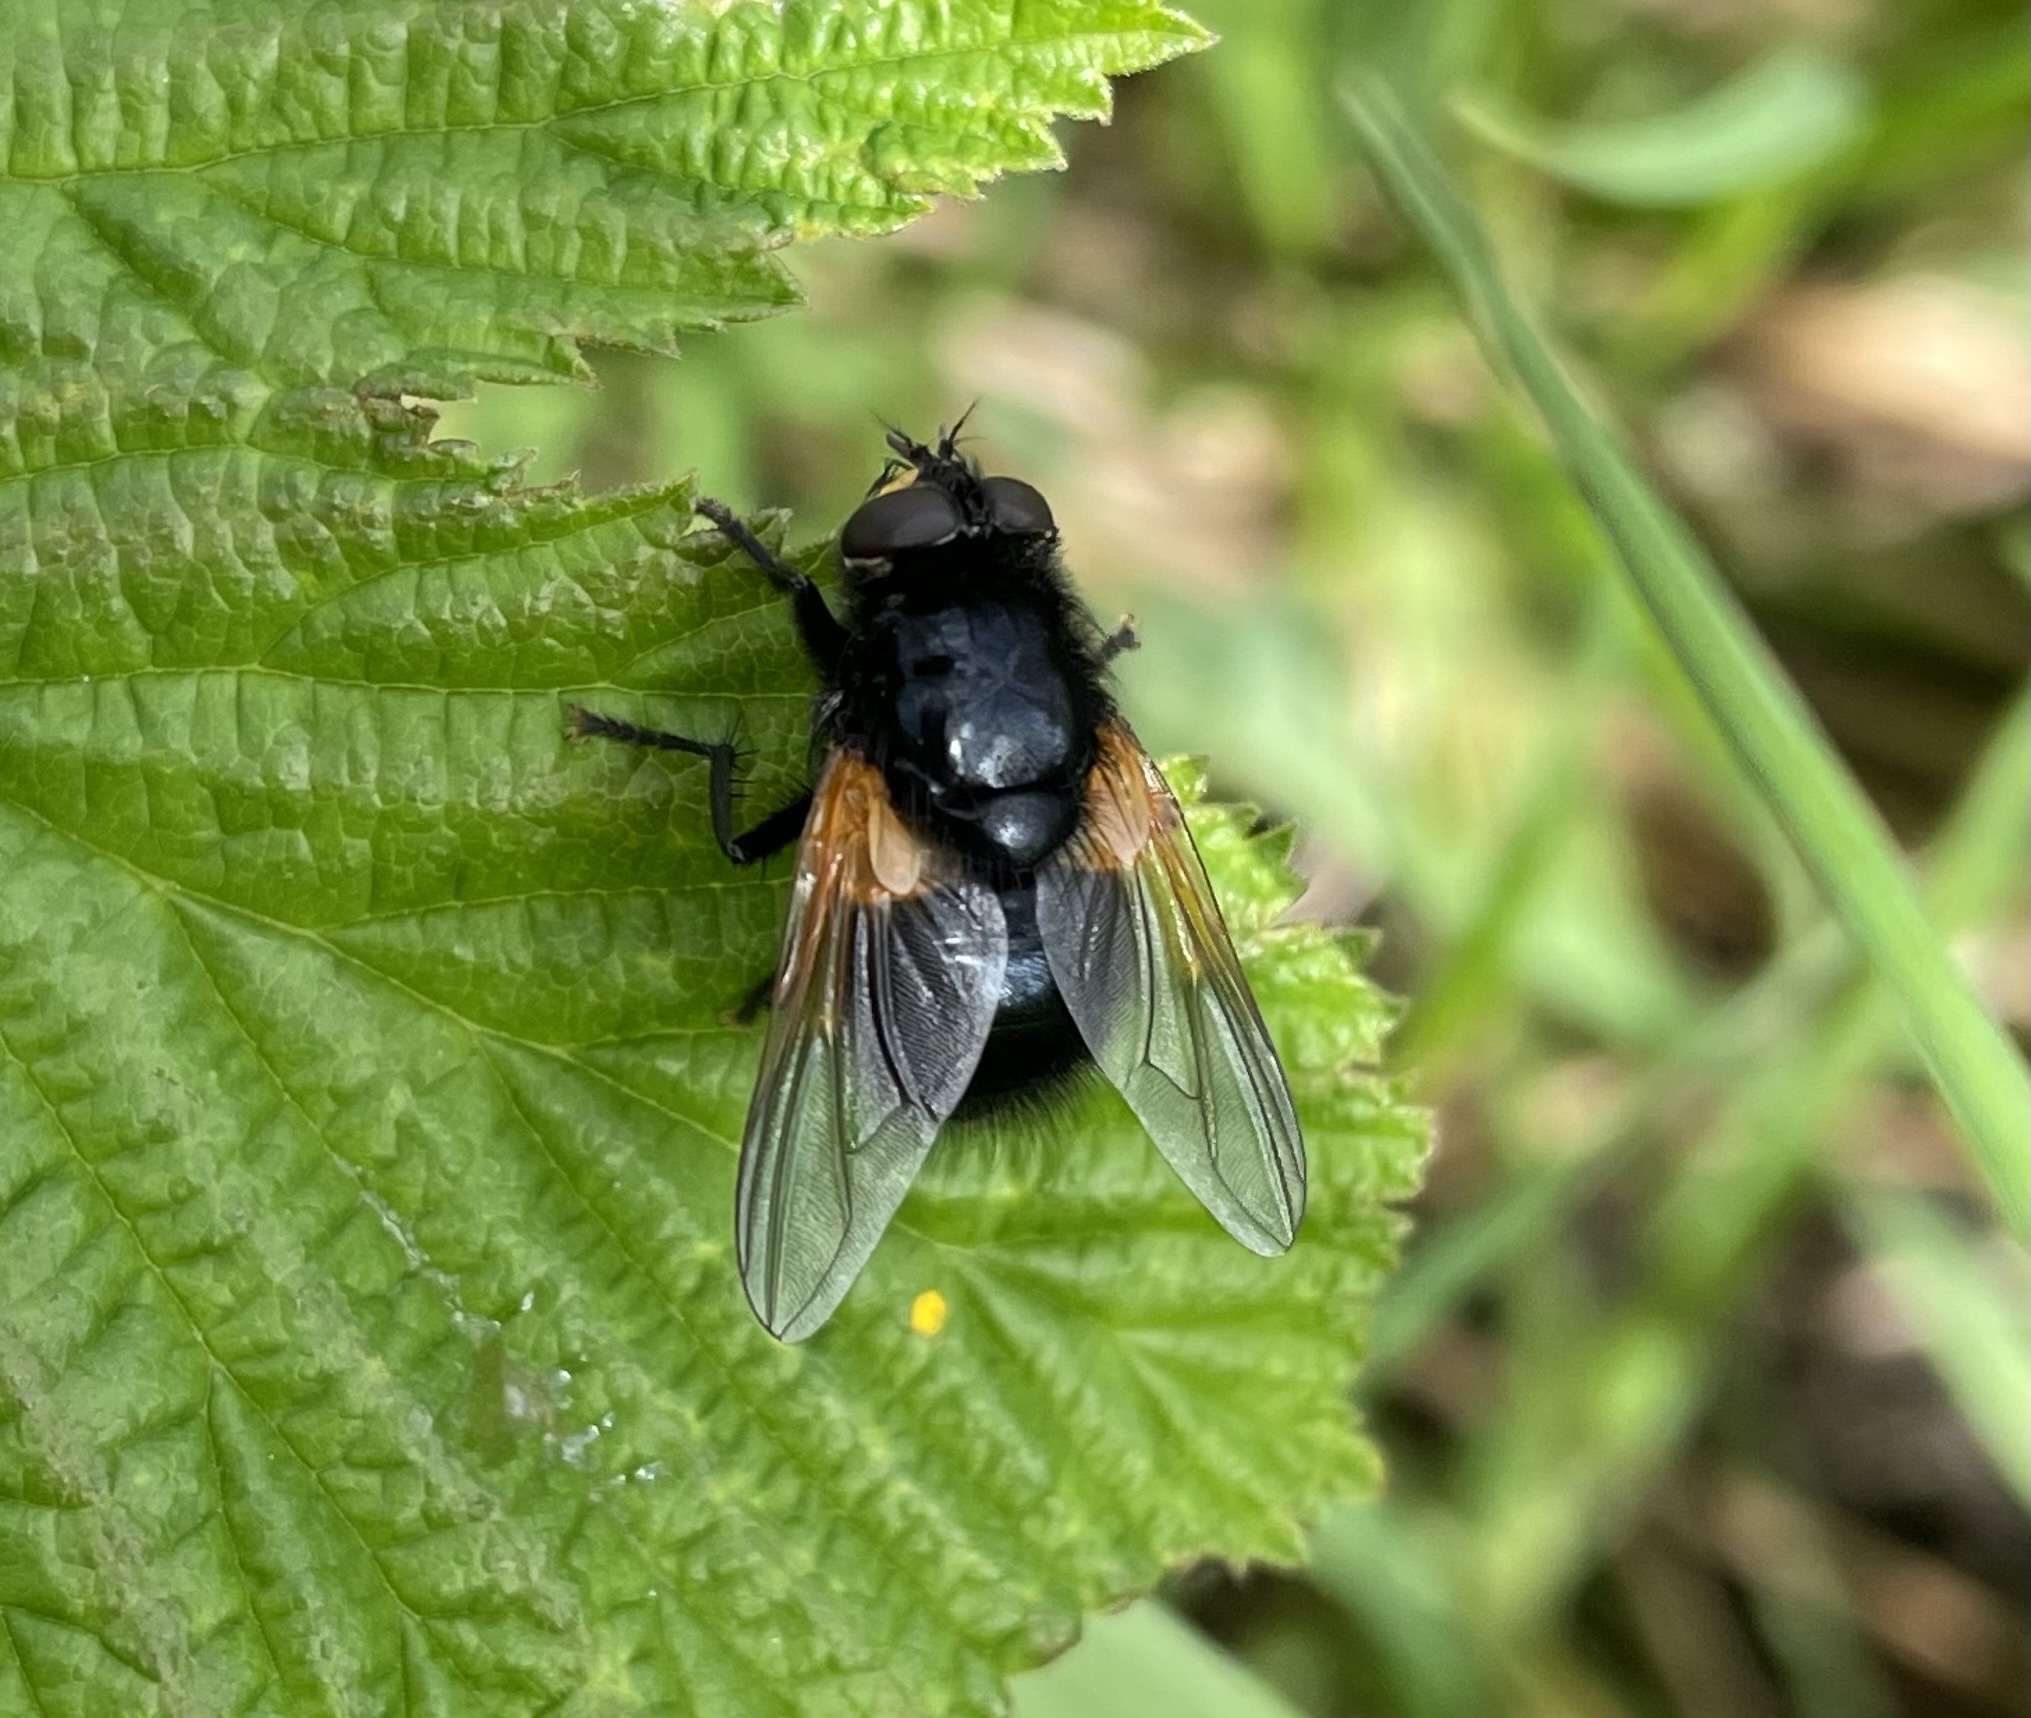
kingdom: Animalia
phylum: Arthropoda
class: Insecta
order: Diptera
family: Muscidae
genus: Mesembrina
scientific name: Mesembrina meridiana
